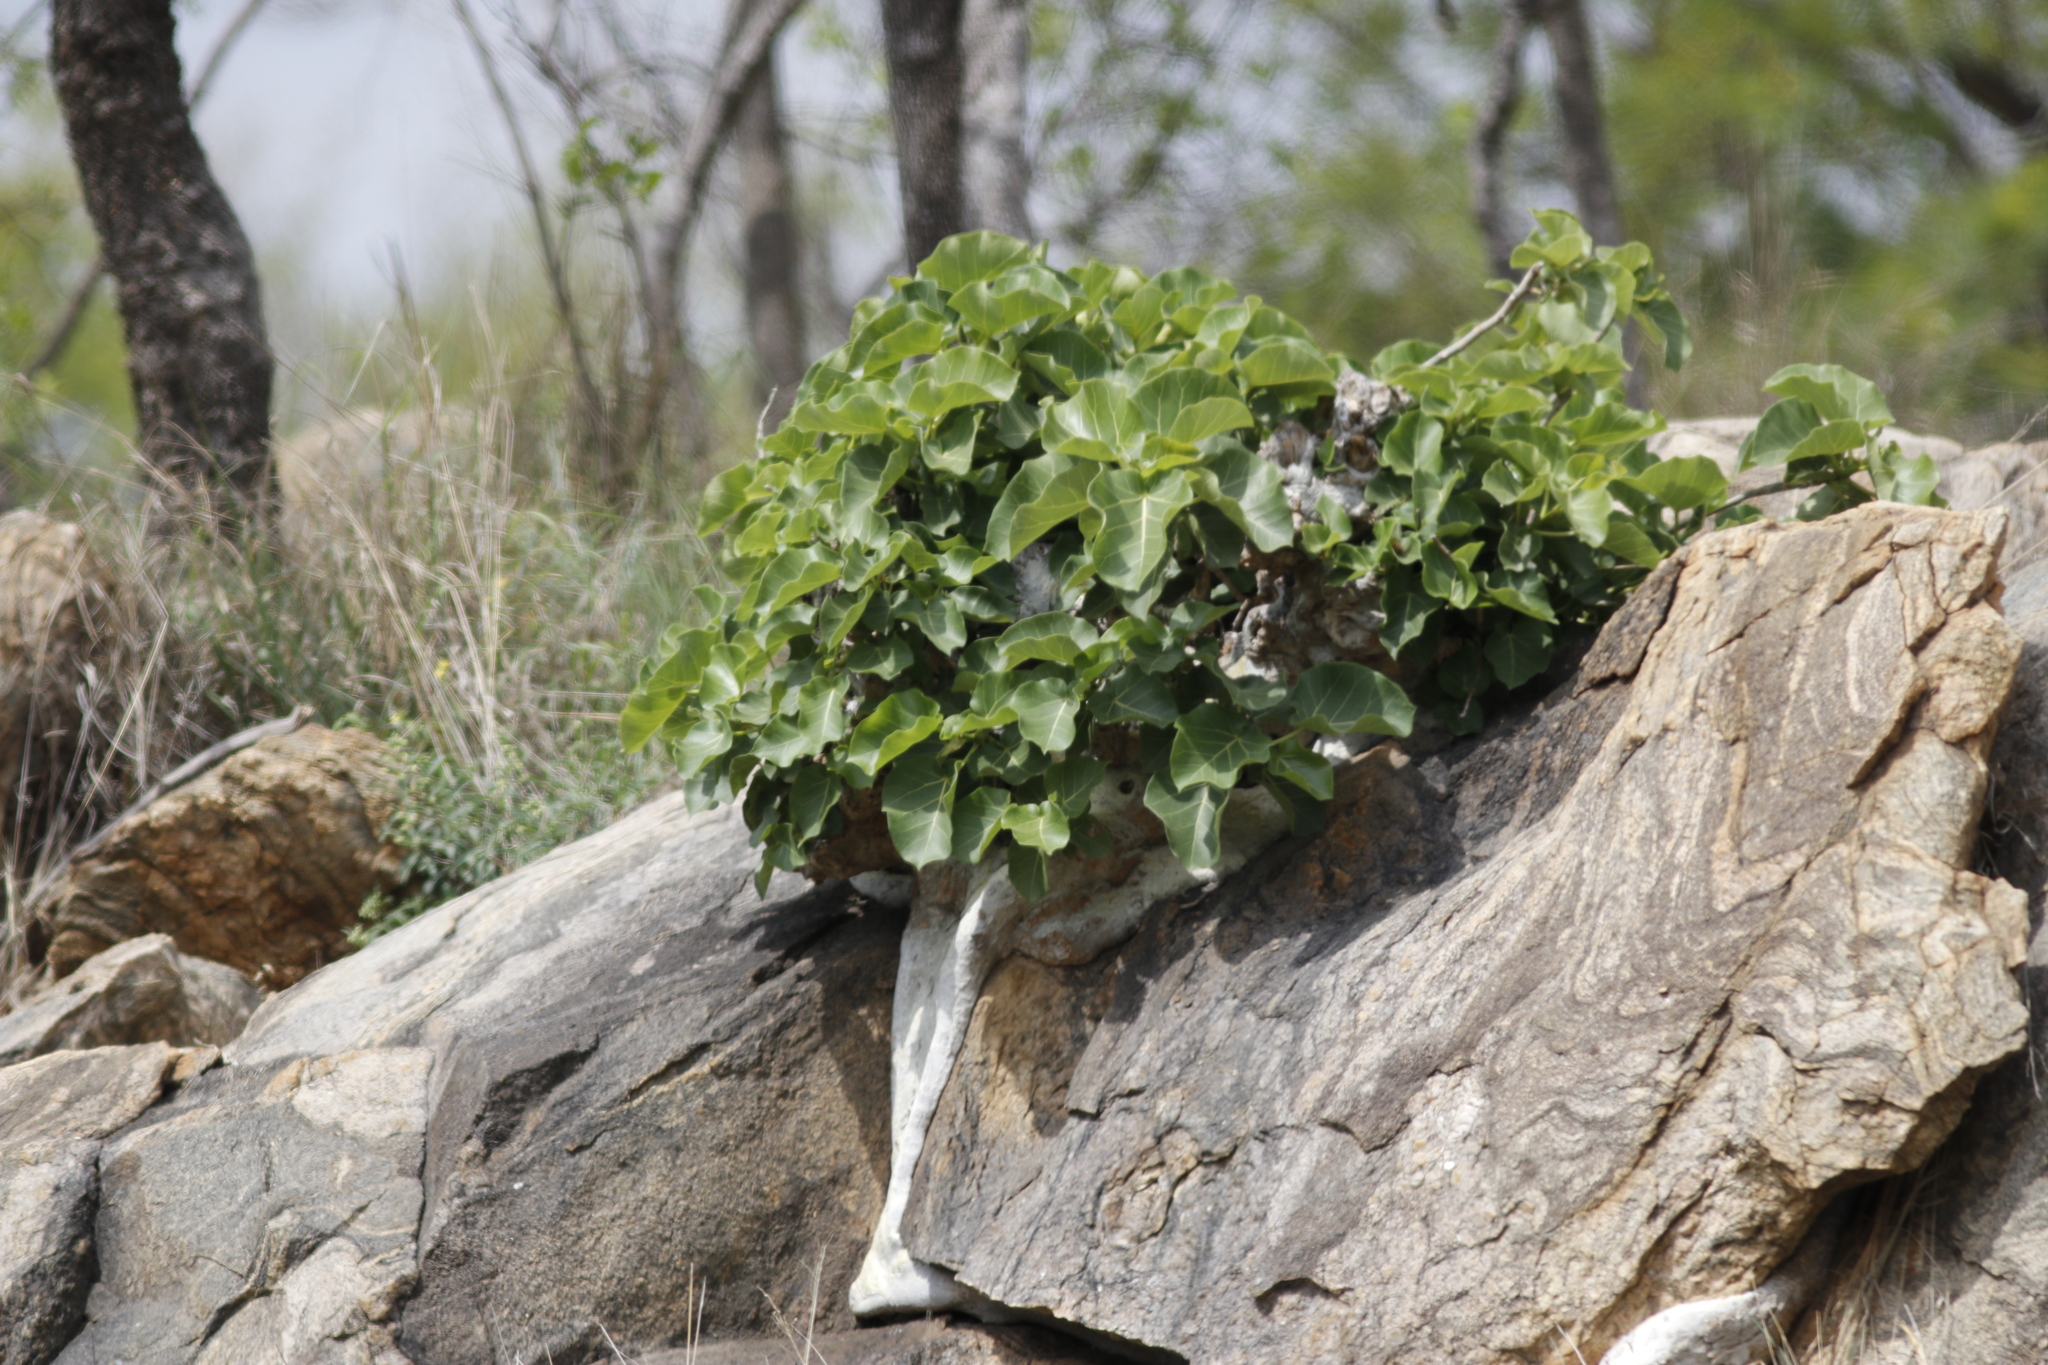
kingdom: Plantae
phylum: Tracheophyta
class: Magnoliopsida
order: Rosales
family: Moraceae
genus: Ficus
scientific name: Ficus abutilifolia
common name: Large-leaved rock fig
